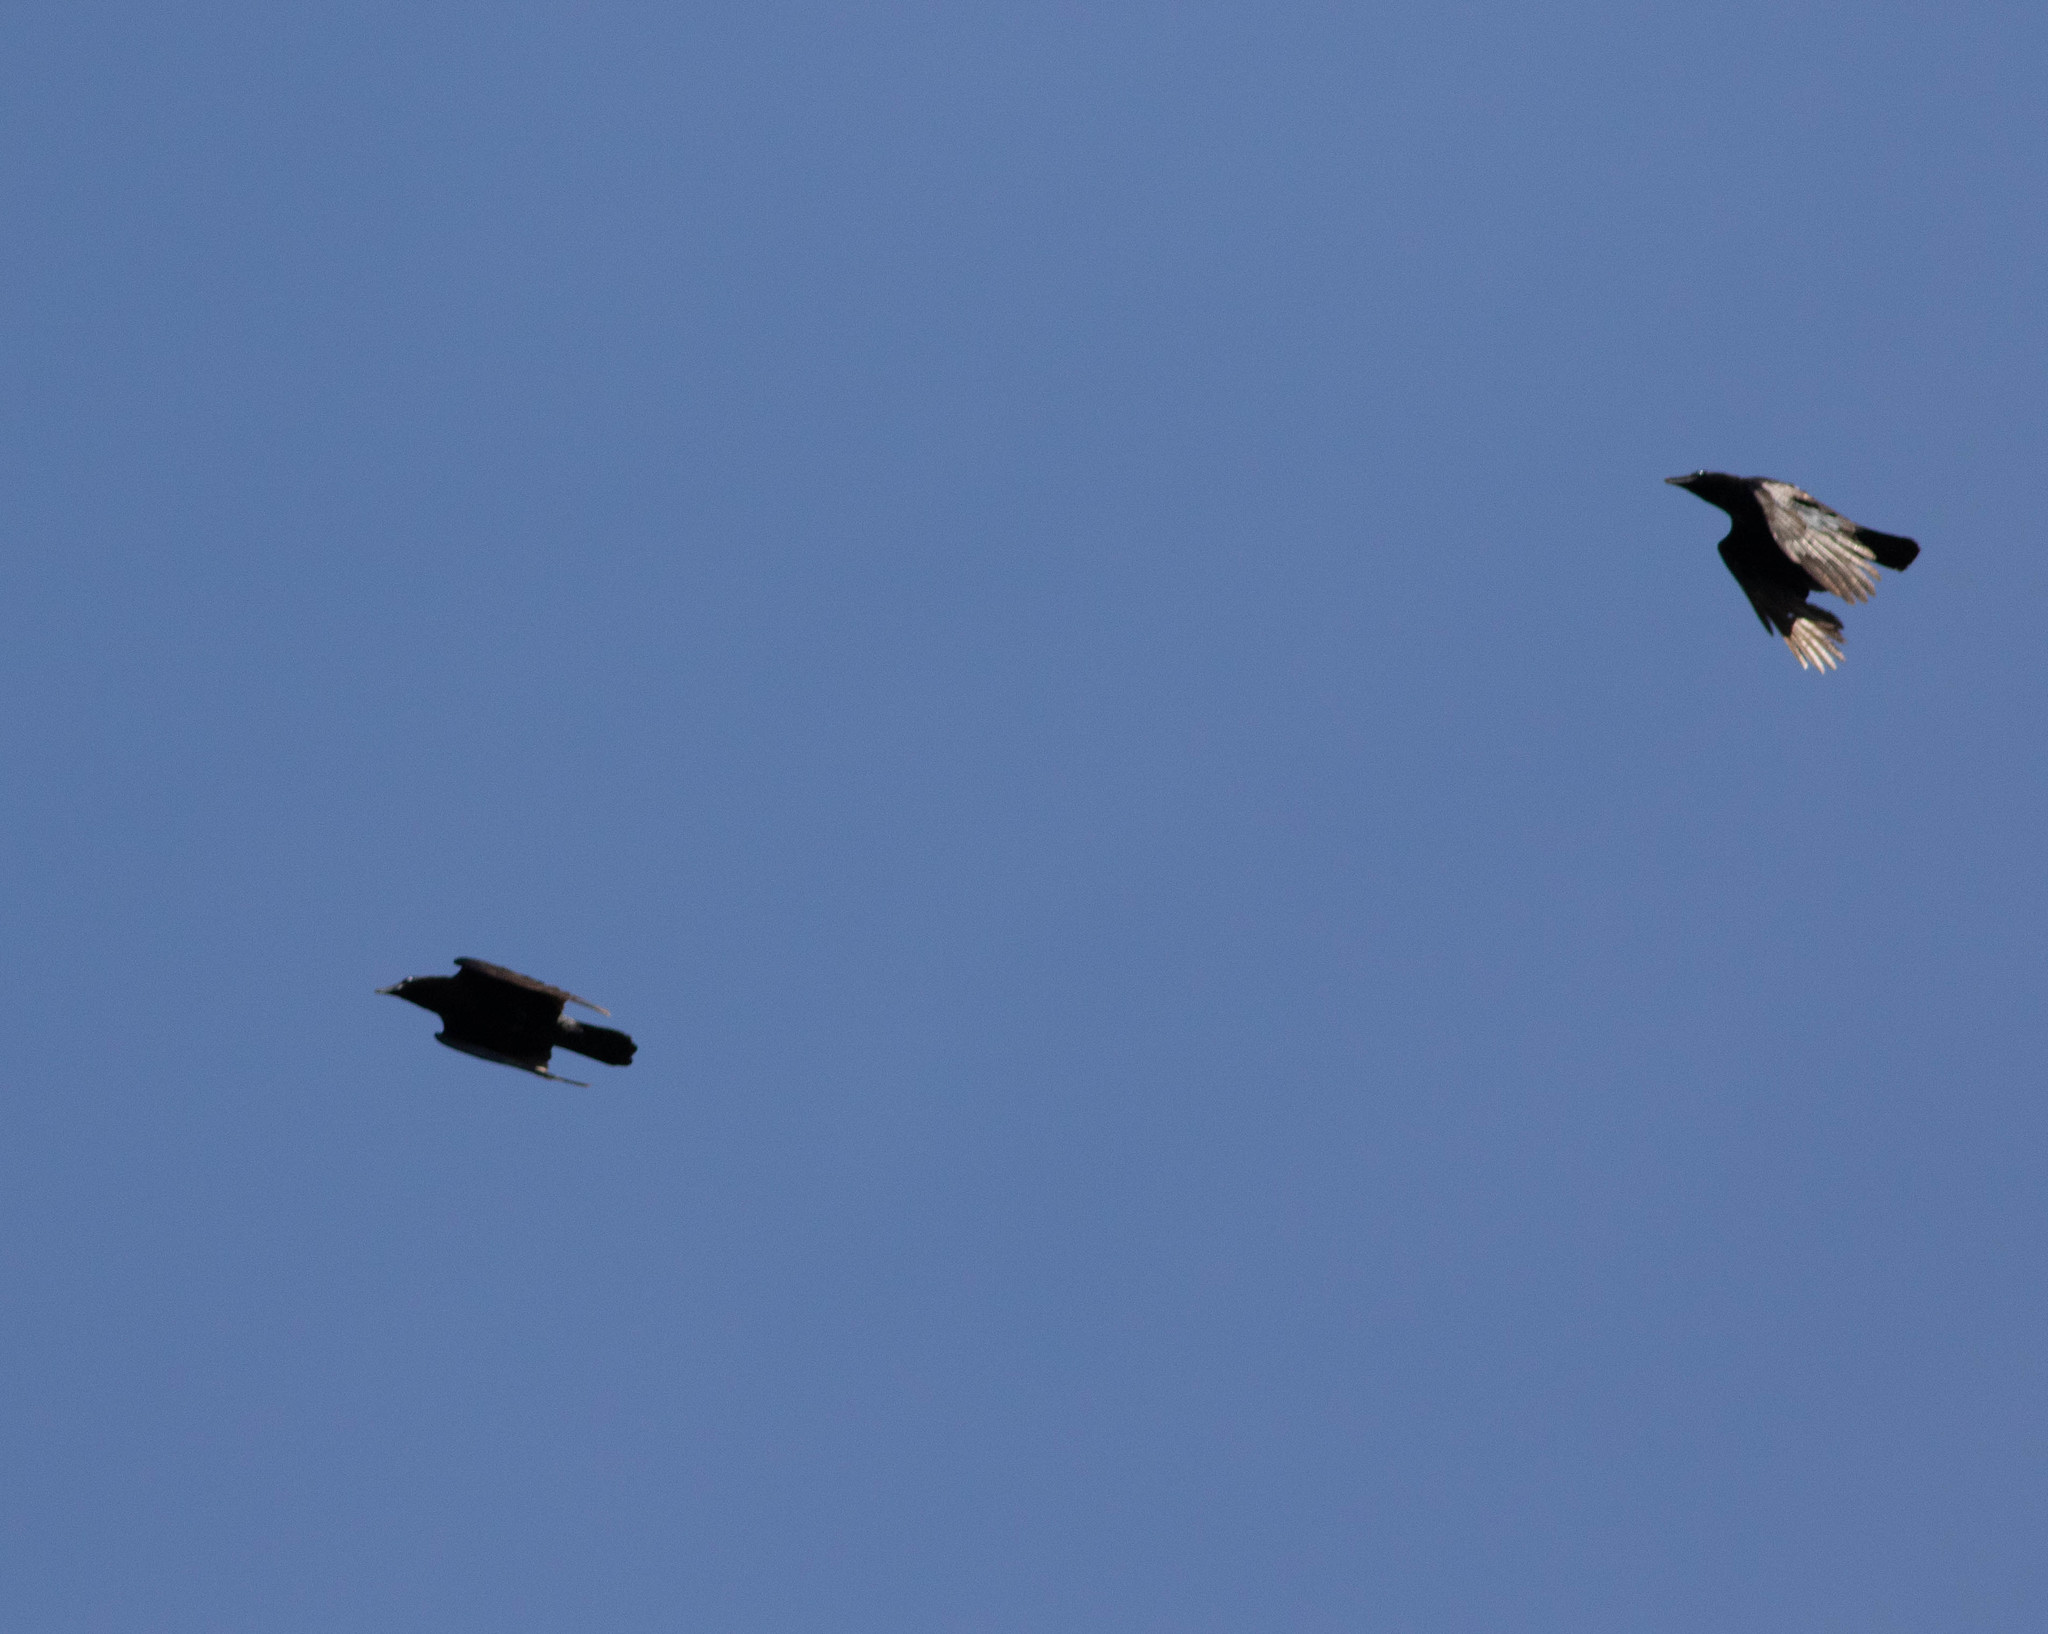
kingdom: Animalia
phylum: Chordata
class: Aves
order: Passeriformes
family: Corvidae
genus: Corvus
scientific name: Corvus brachyrhynchos
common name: American crow
